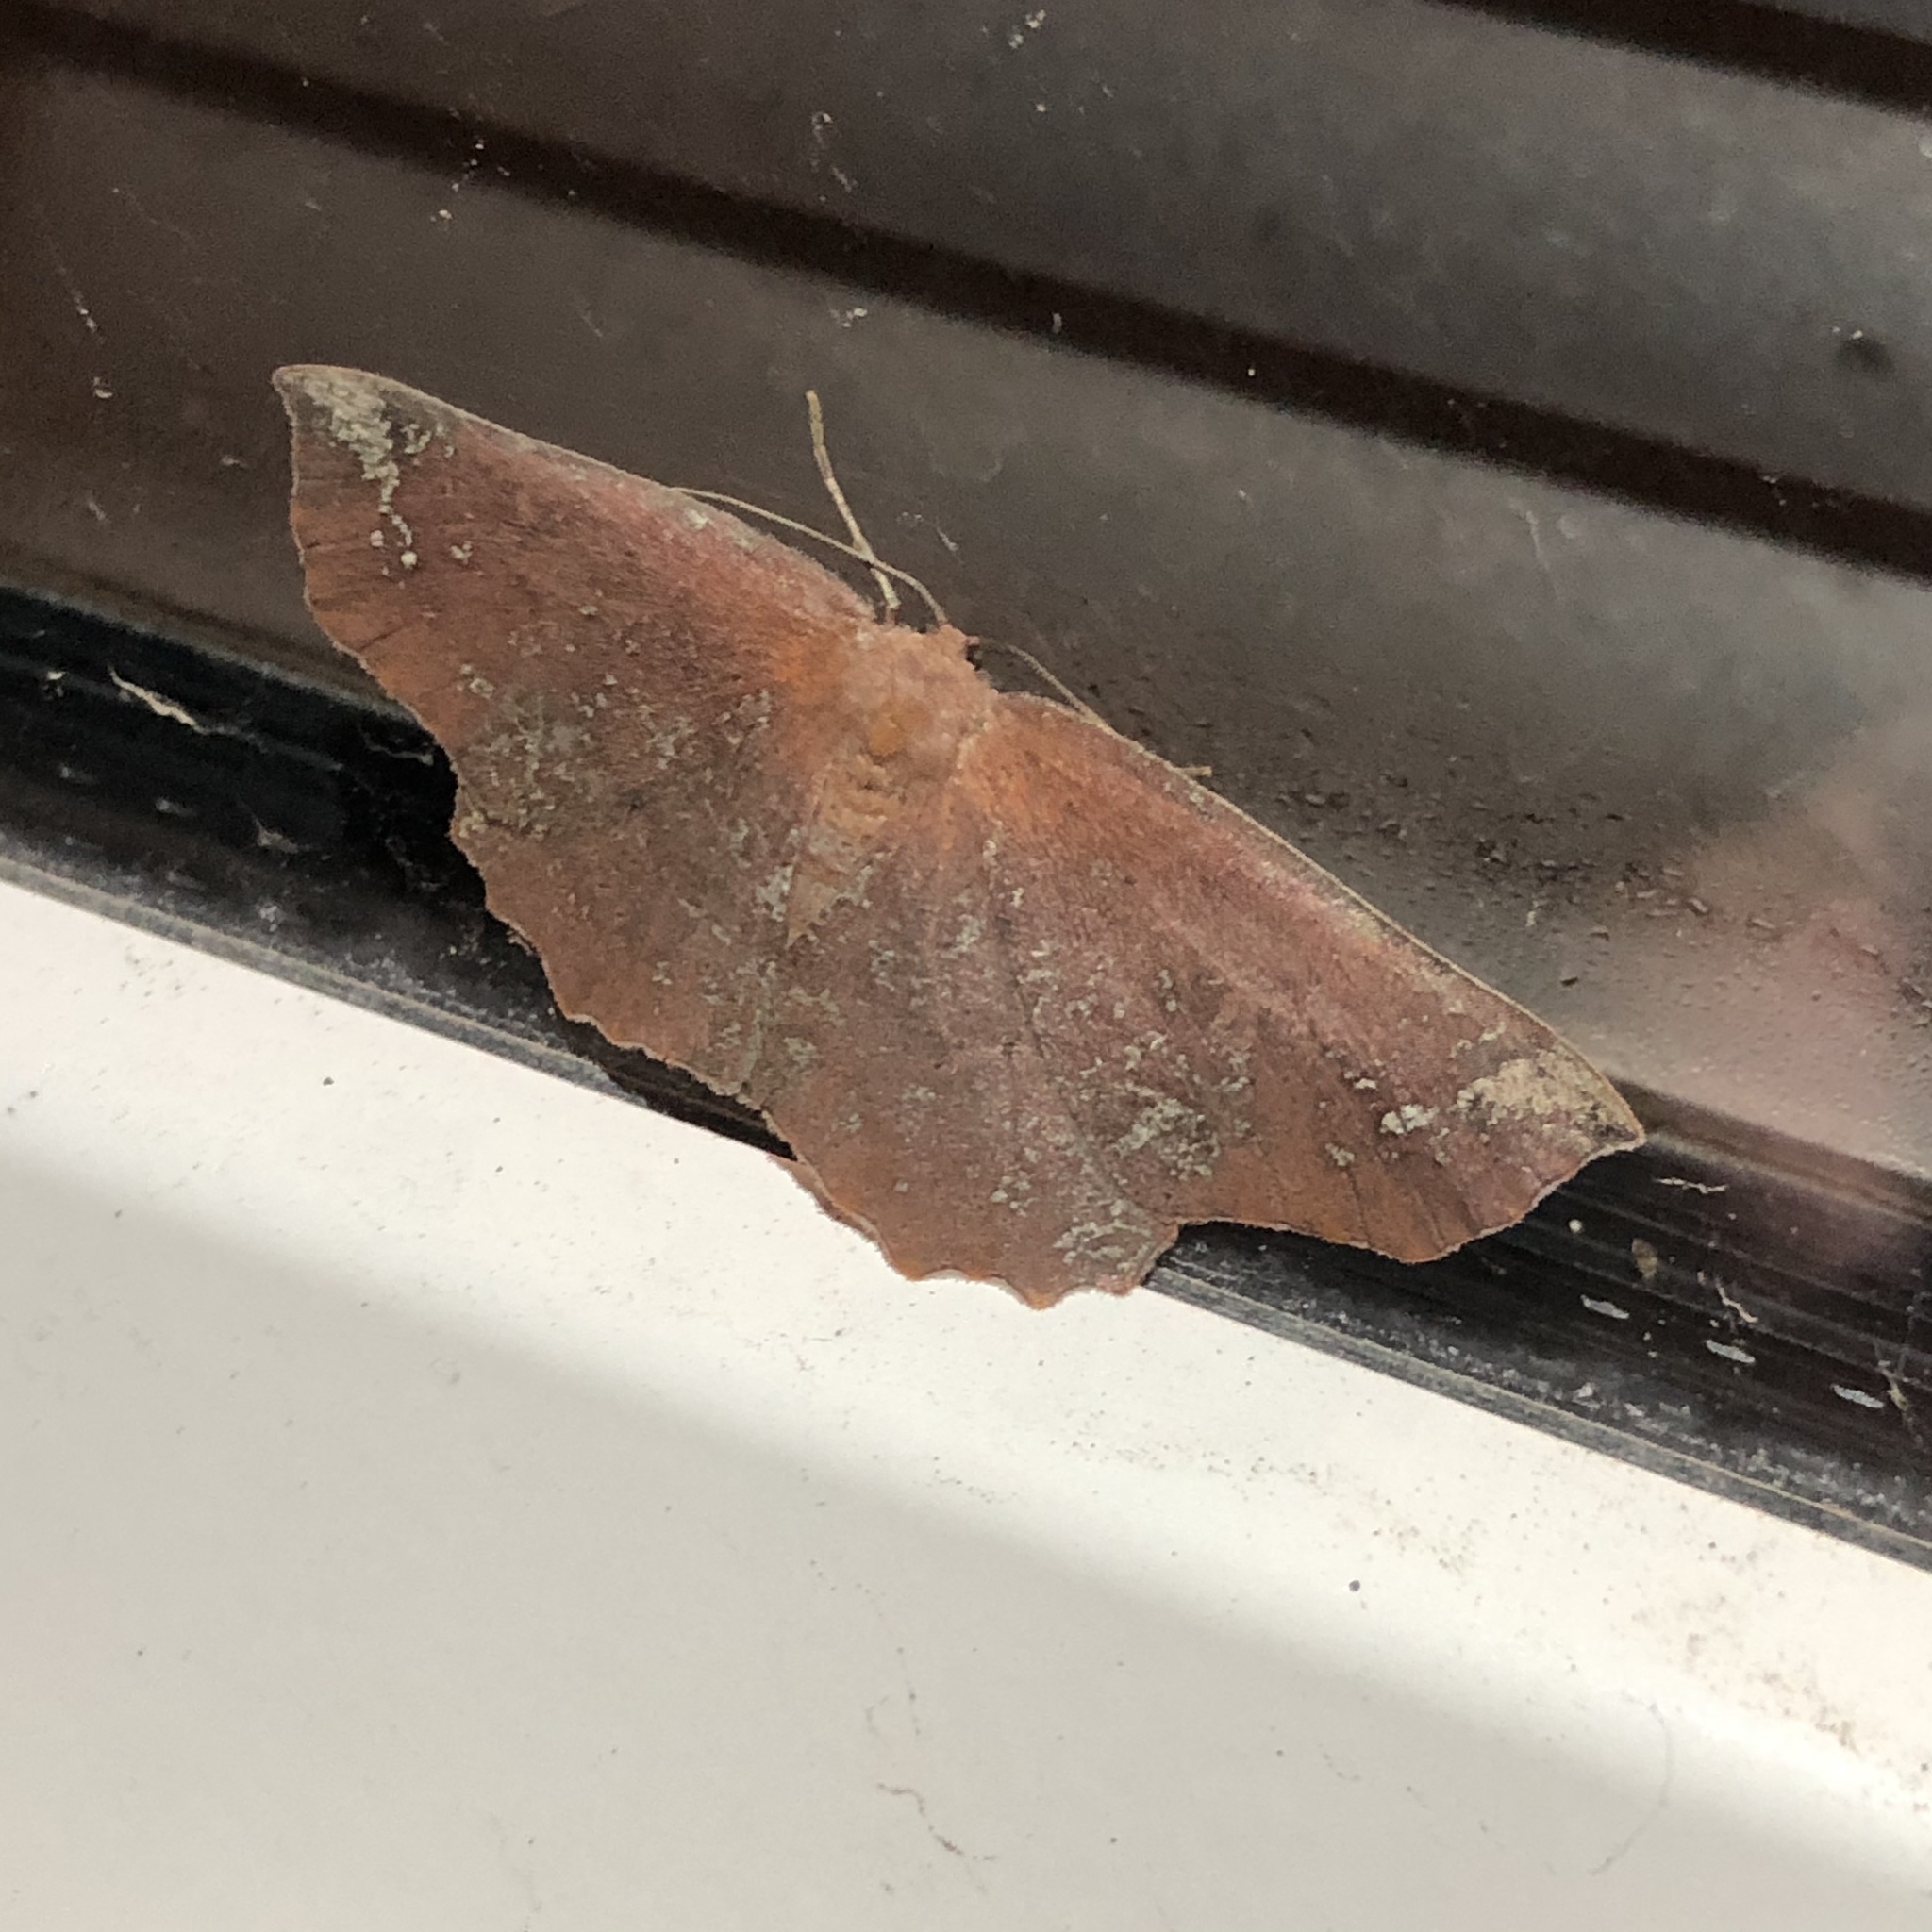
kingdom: Animalia
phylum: Arthropoda
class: Insecta
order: Lepidoptera
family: Geometridae
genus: Xyridacma
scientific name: Xyridacma ustaria
